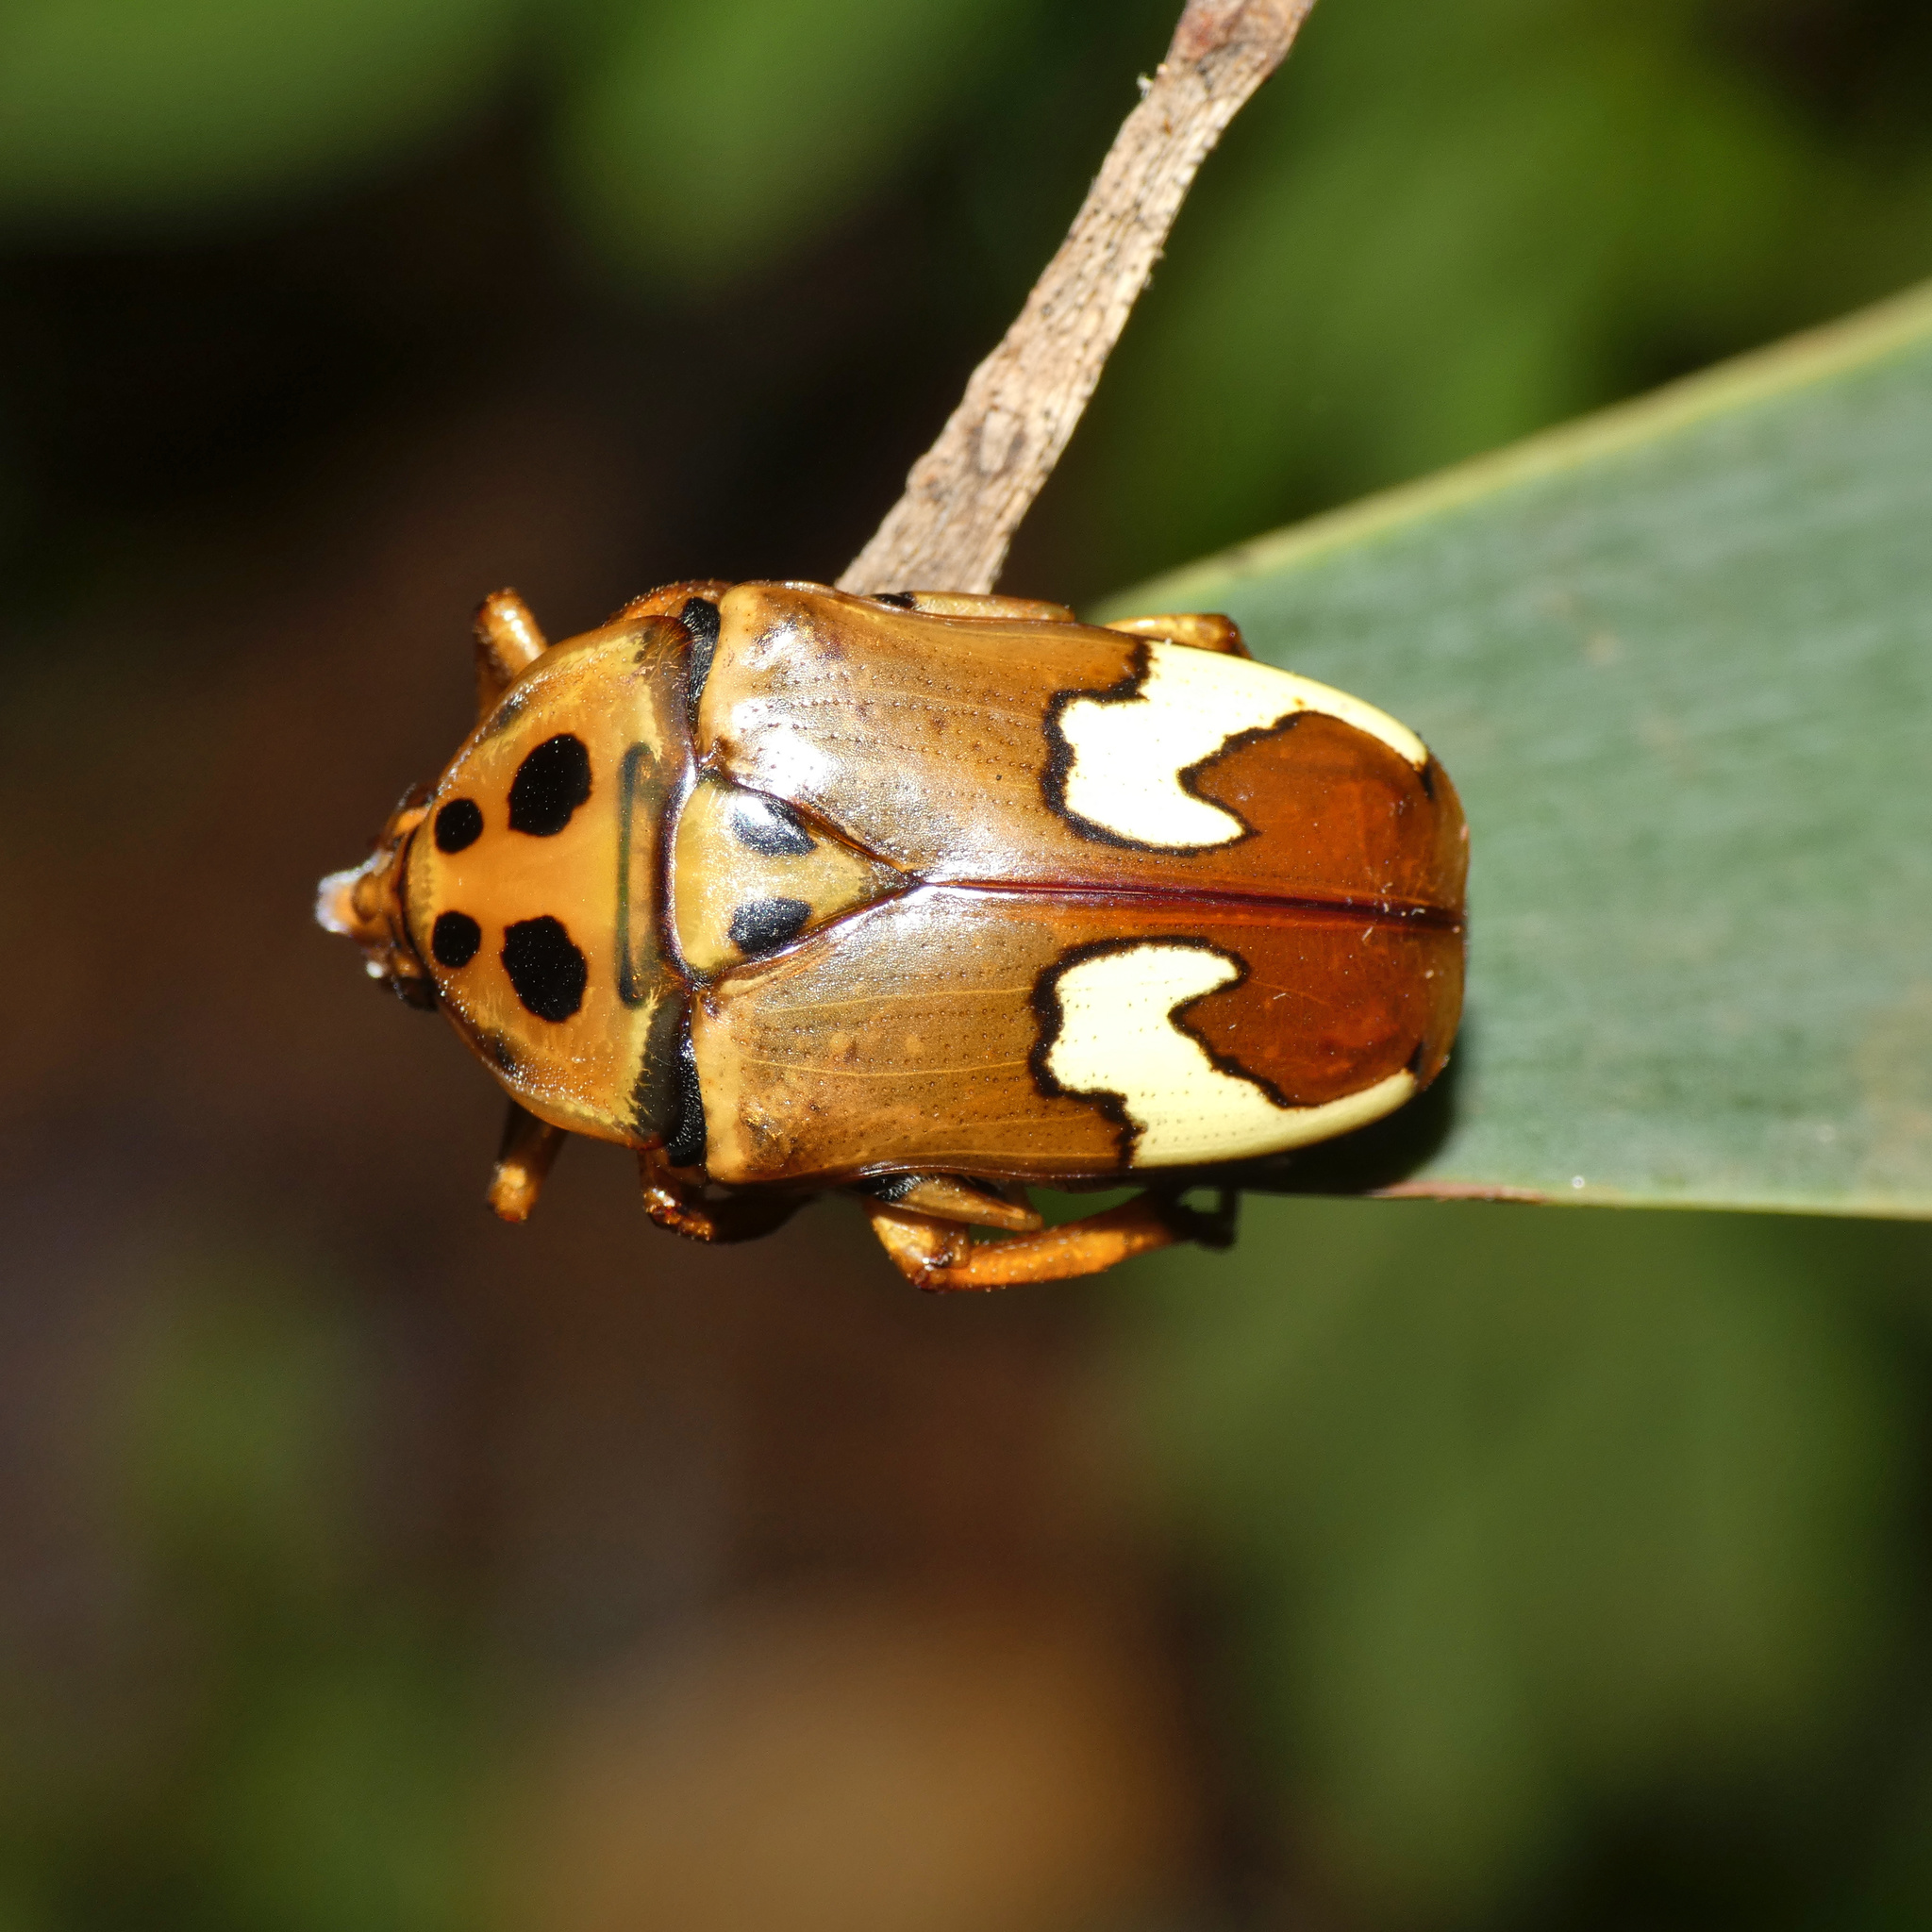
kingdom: Animalia
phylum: Arthropoda
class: Insecta
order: Coleoptera
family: Scarabaeidae
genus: Anisorrhina
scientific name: Anisorrhina flavomaculata
